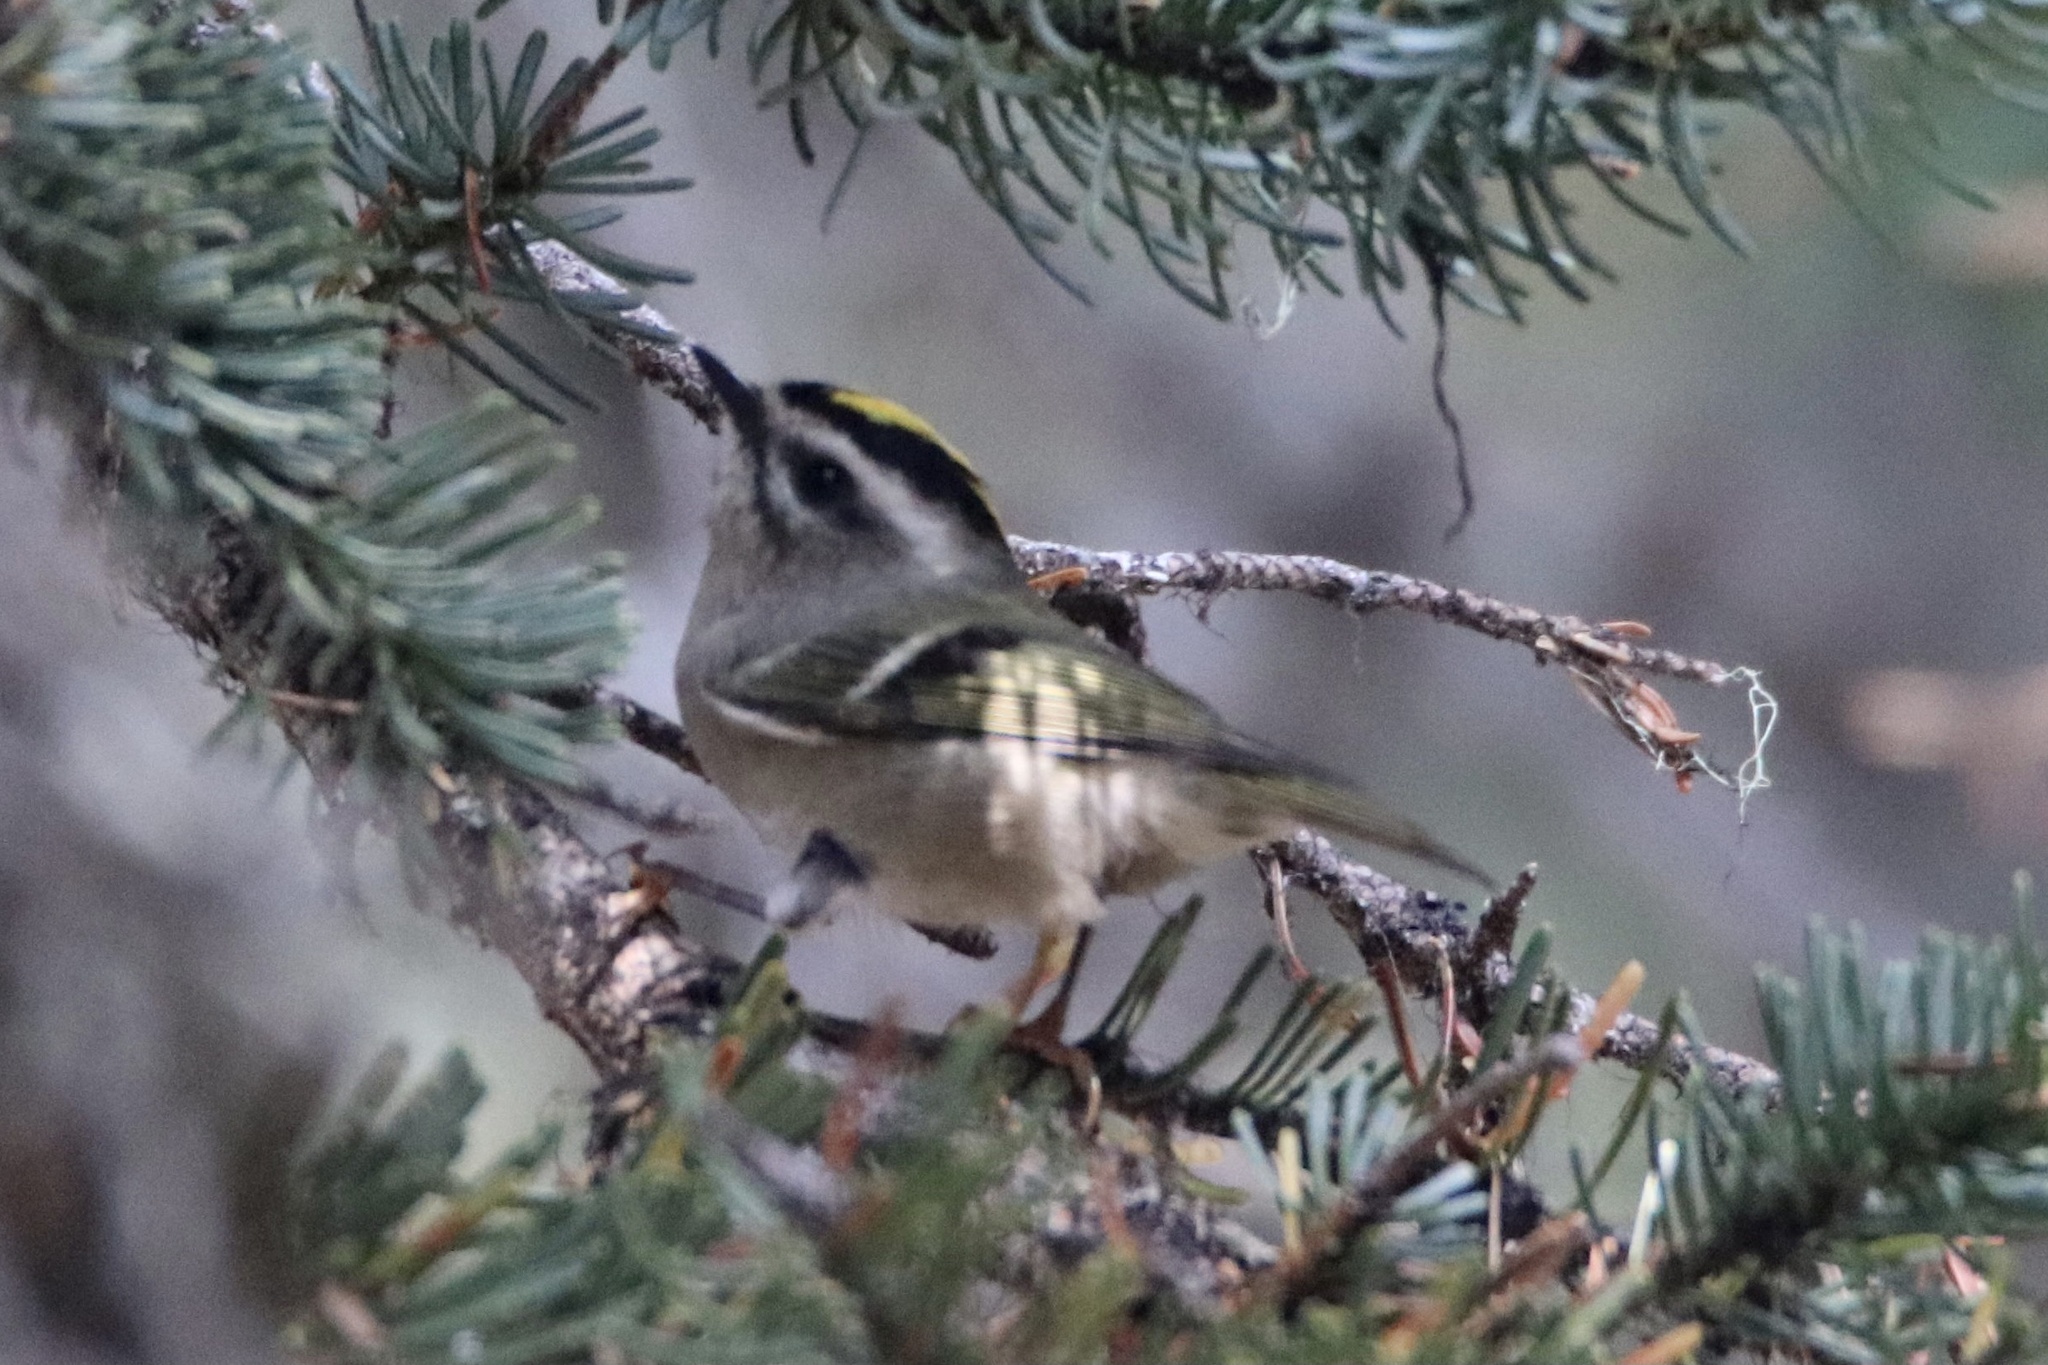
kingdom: Animalia
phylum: Chordata
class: Aves
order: Passeriformes
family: Regulidae
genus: Regulus
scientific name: Regulus satrapa
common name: Golden-crowned kinglet
